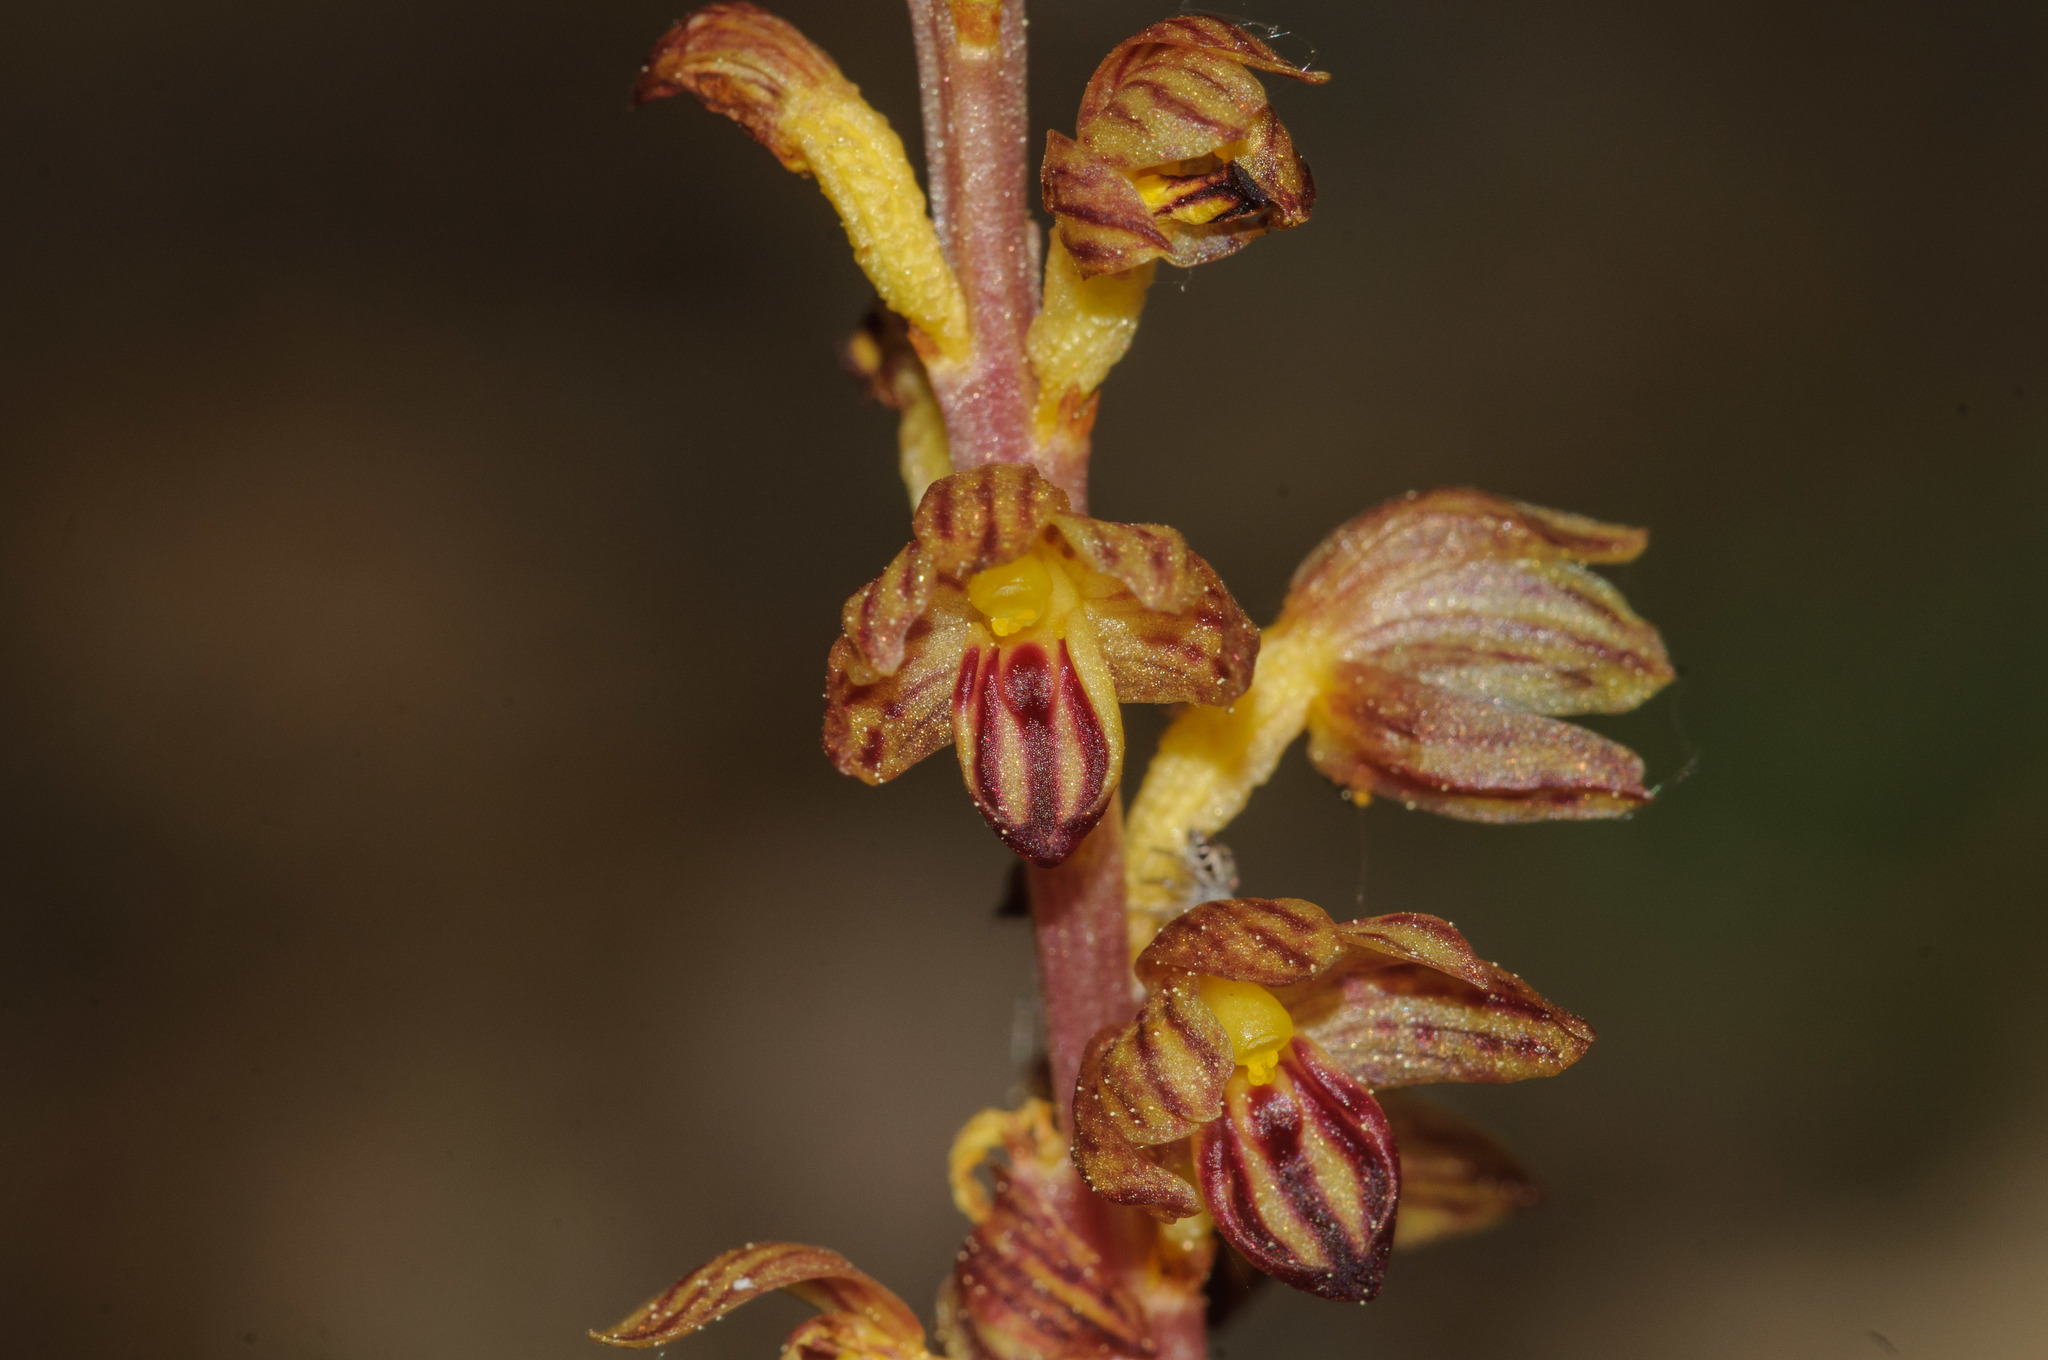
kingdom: Plantae
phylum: Tracheophyta
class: Liliopsida
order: Asparagales
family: Orchidaceae
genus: Corallorhiza
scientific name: Corallorhiza striata
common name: Hooded coralroot
